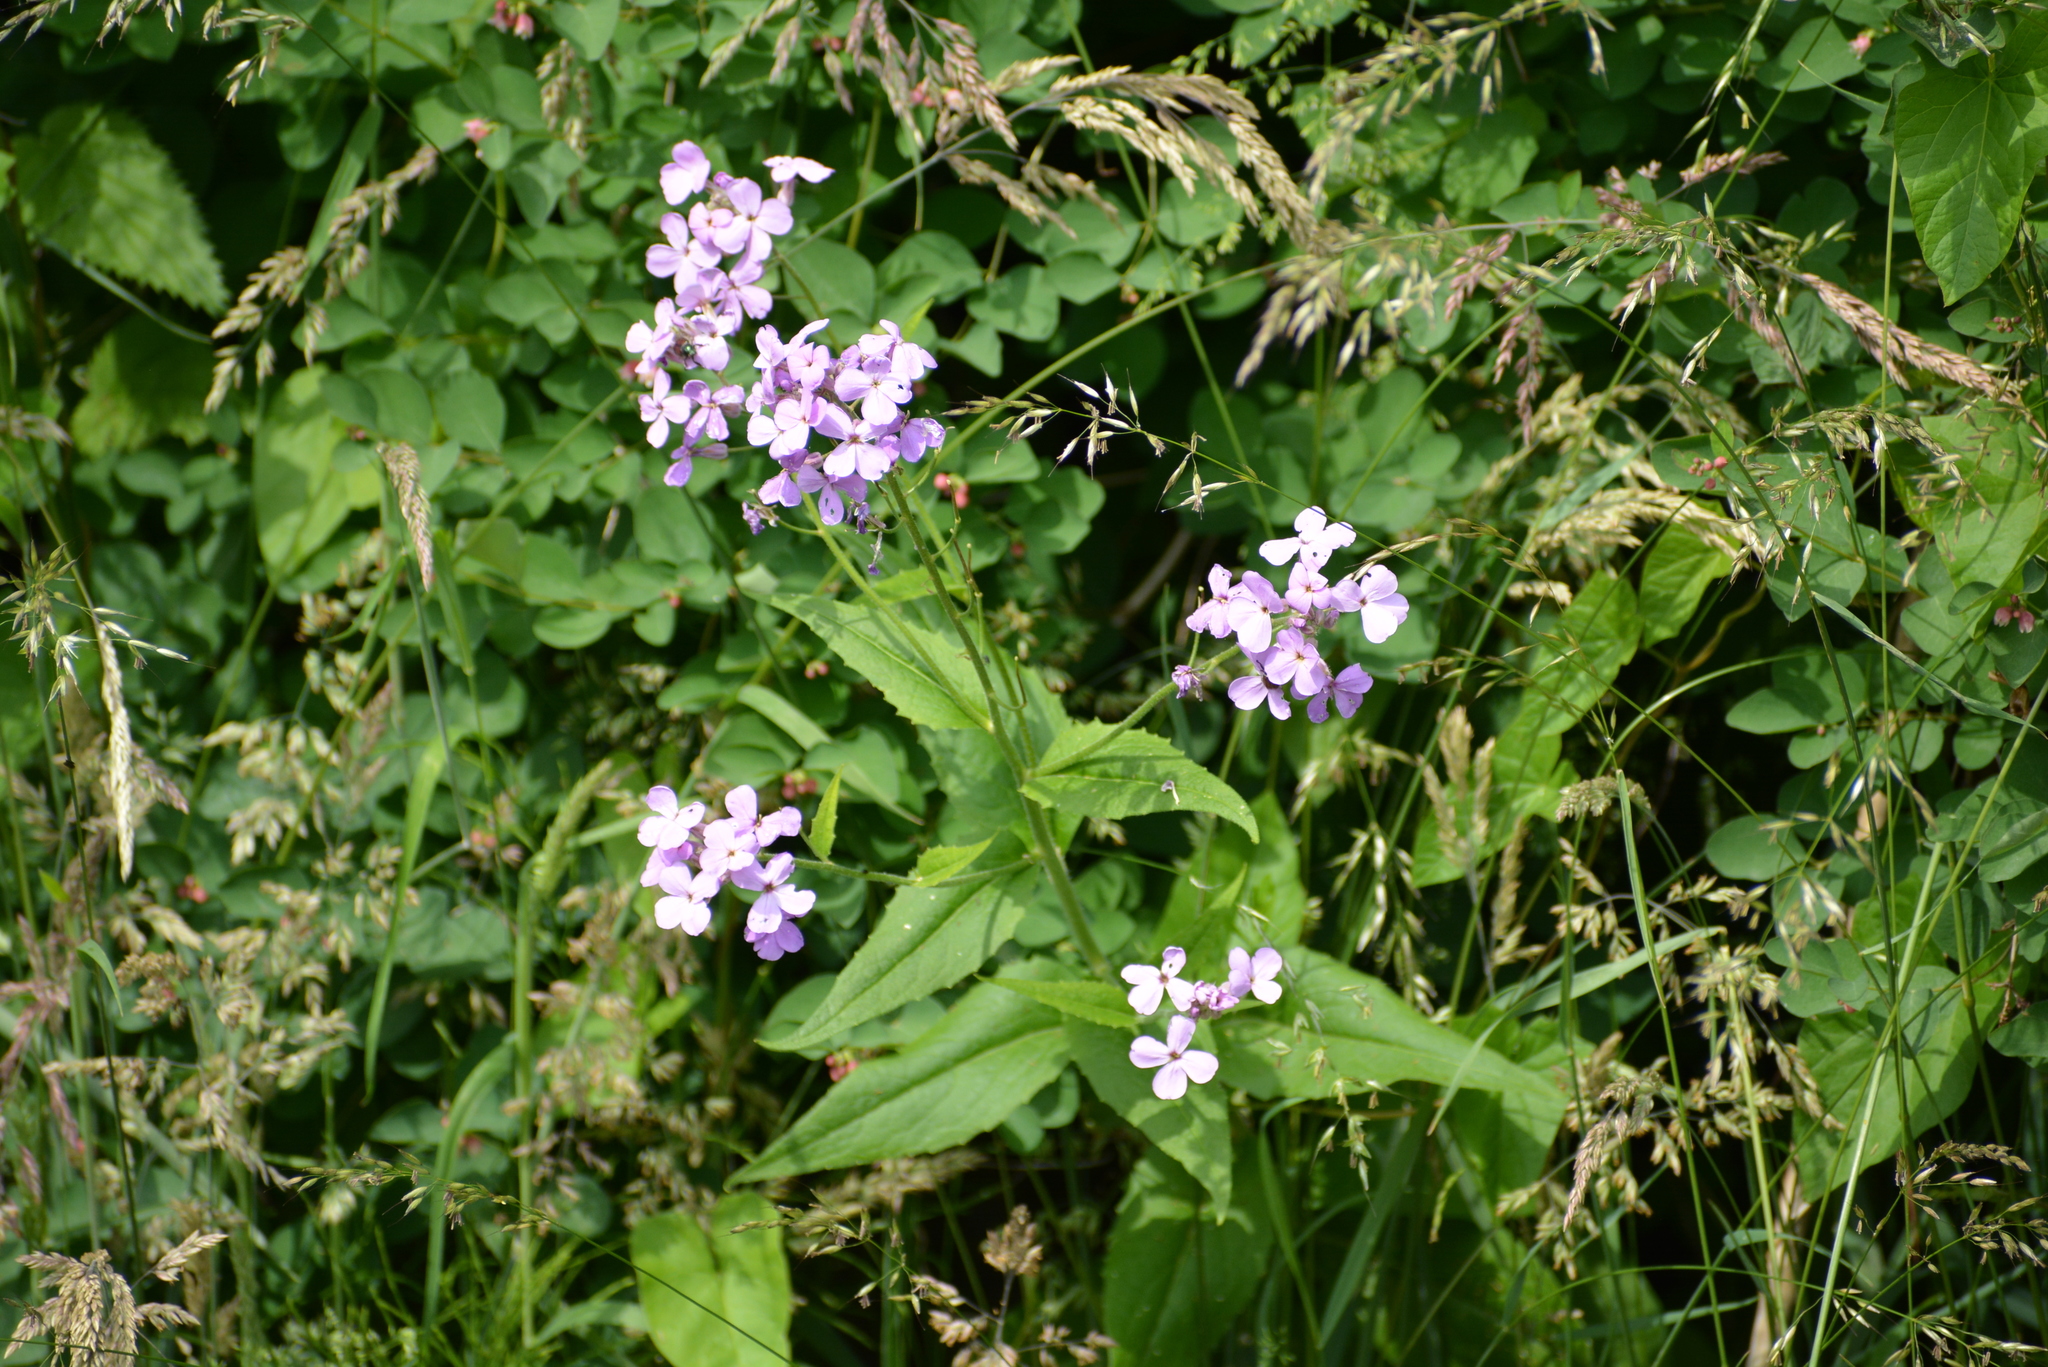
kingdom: Plantae
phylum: Tracheophyta
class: Magnoliopsida
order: Brassicales
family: Brassicaceae
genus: Hesperis
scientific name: Hesperis matronalis
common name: Dame's-violet
